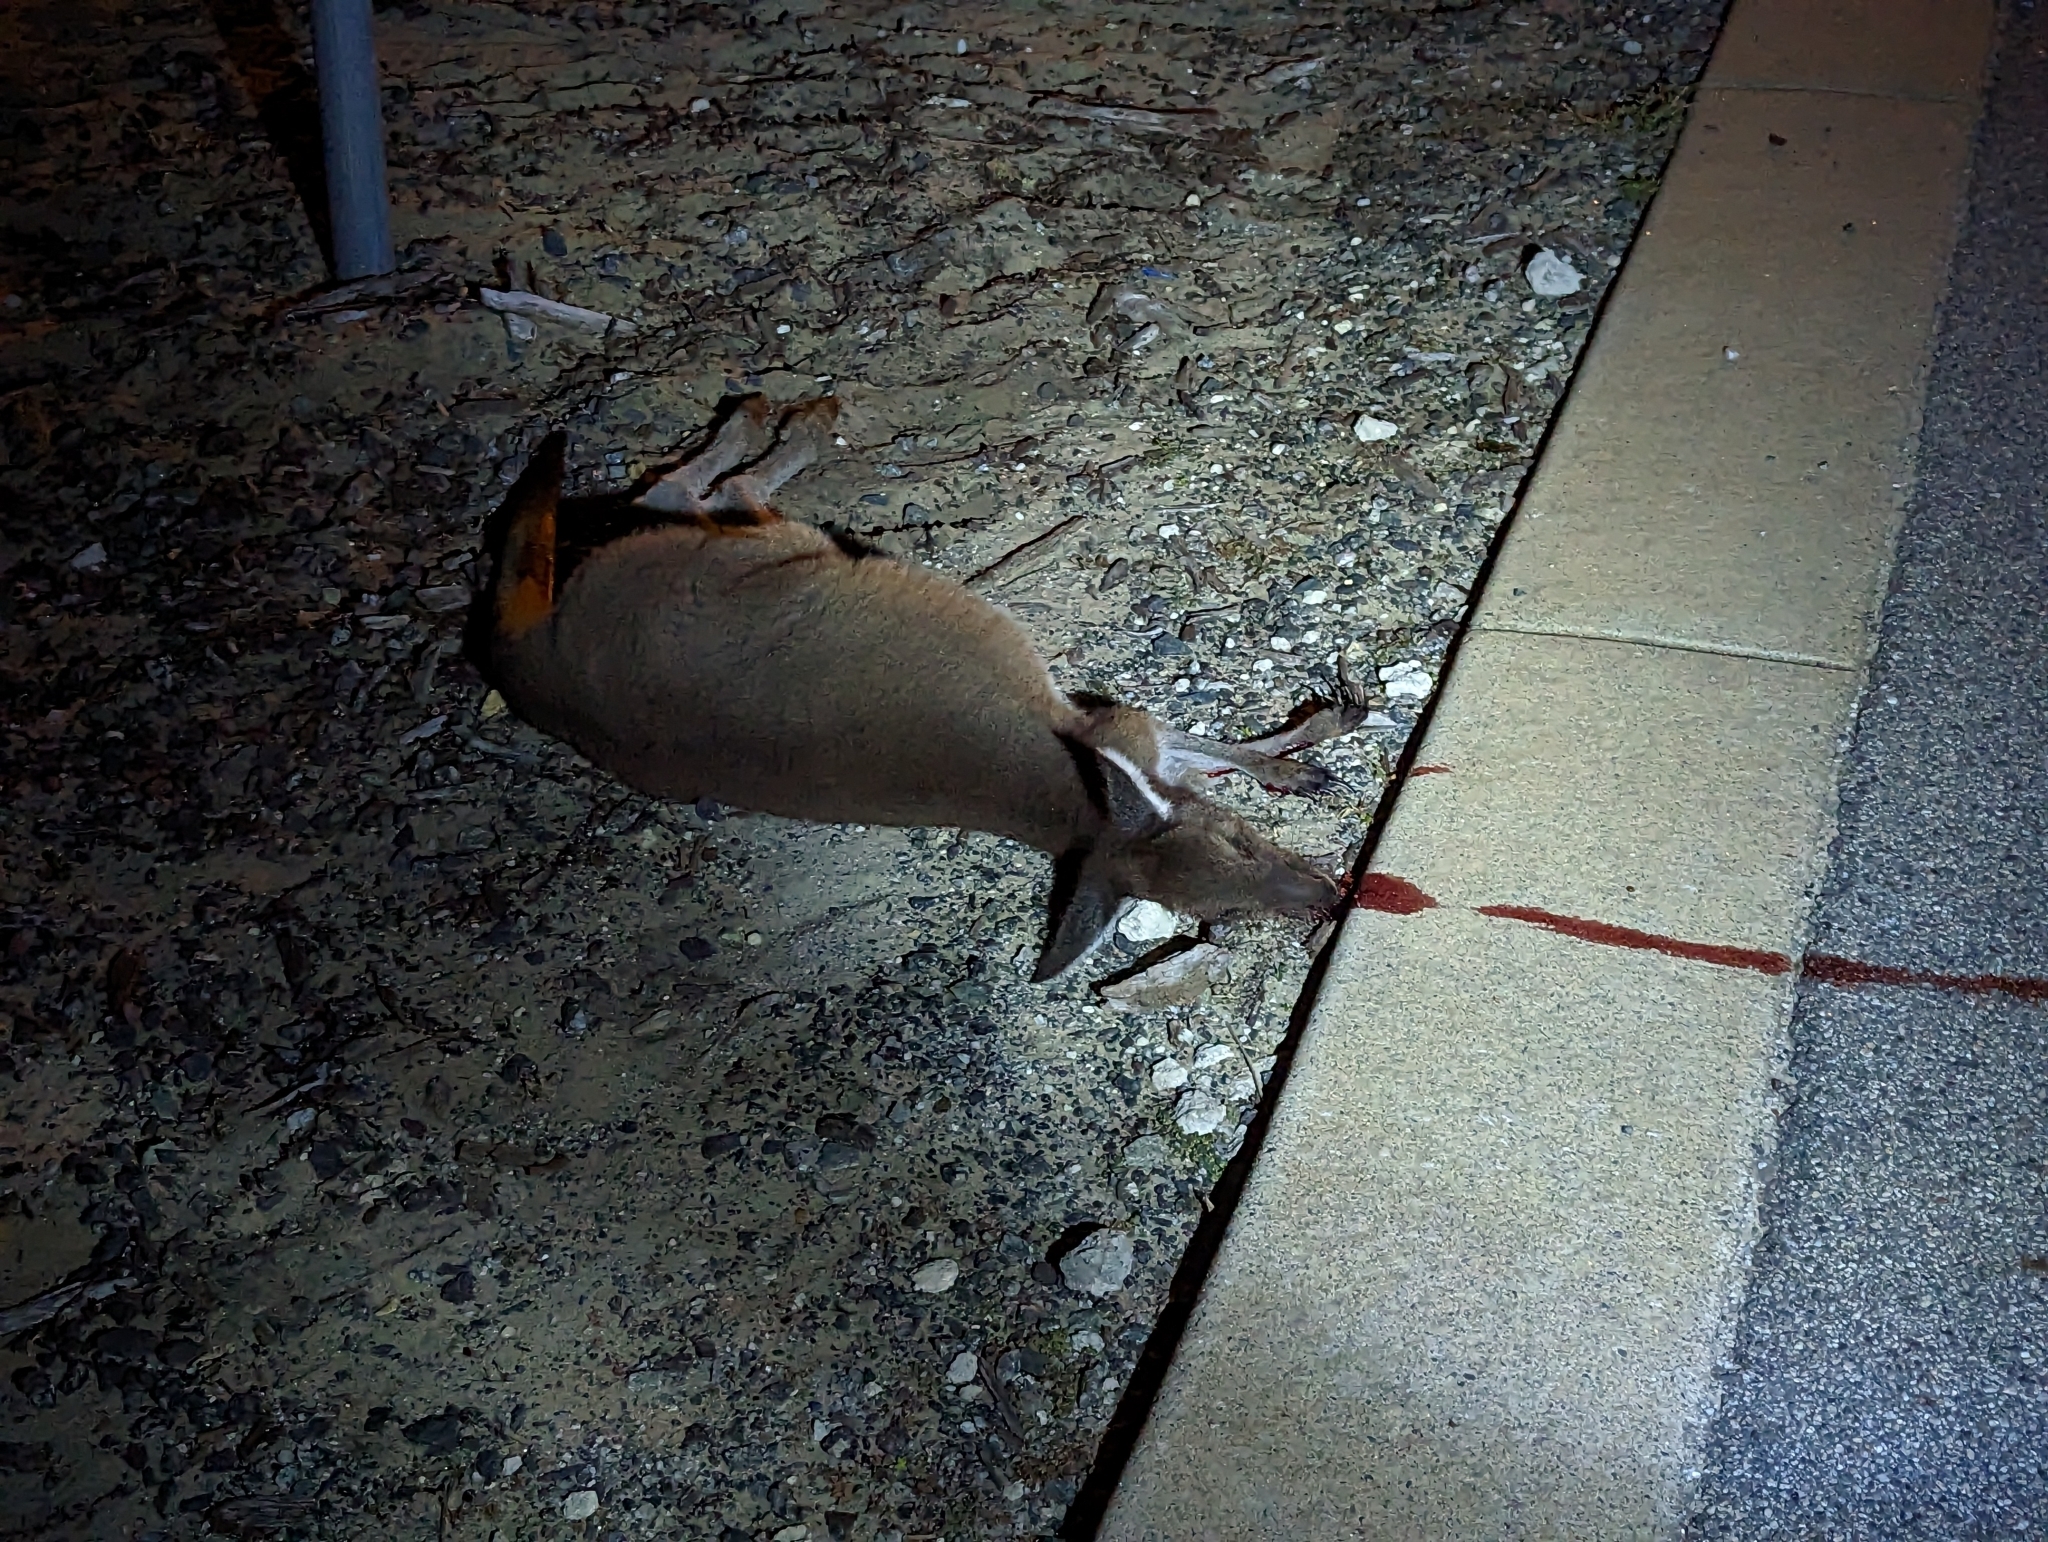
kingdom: Animalia
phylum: Chordata
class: Mammalia
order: Diprotodontia
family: Macropodidae
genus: Macropus
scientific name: Macropus fuliginosus
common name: Western grey kangaroo
